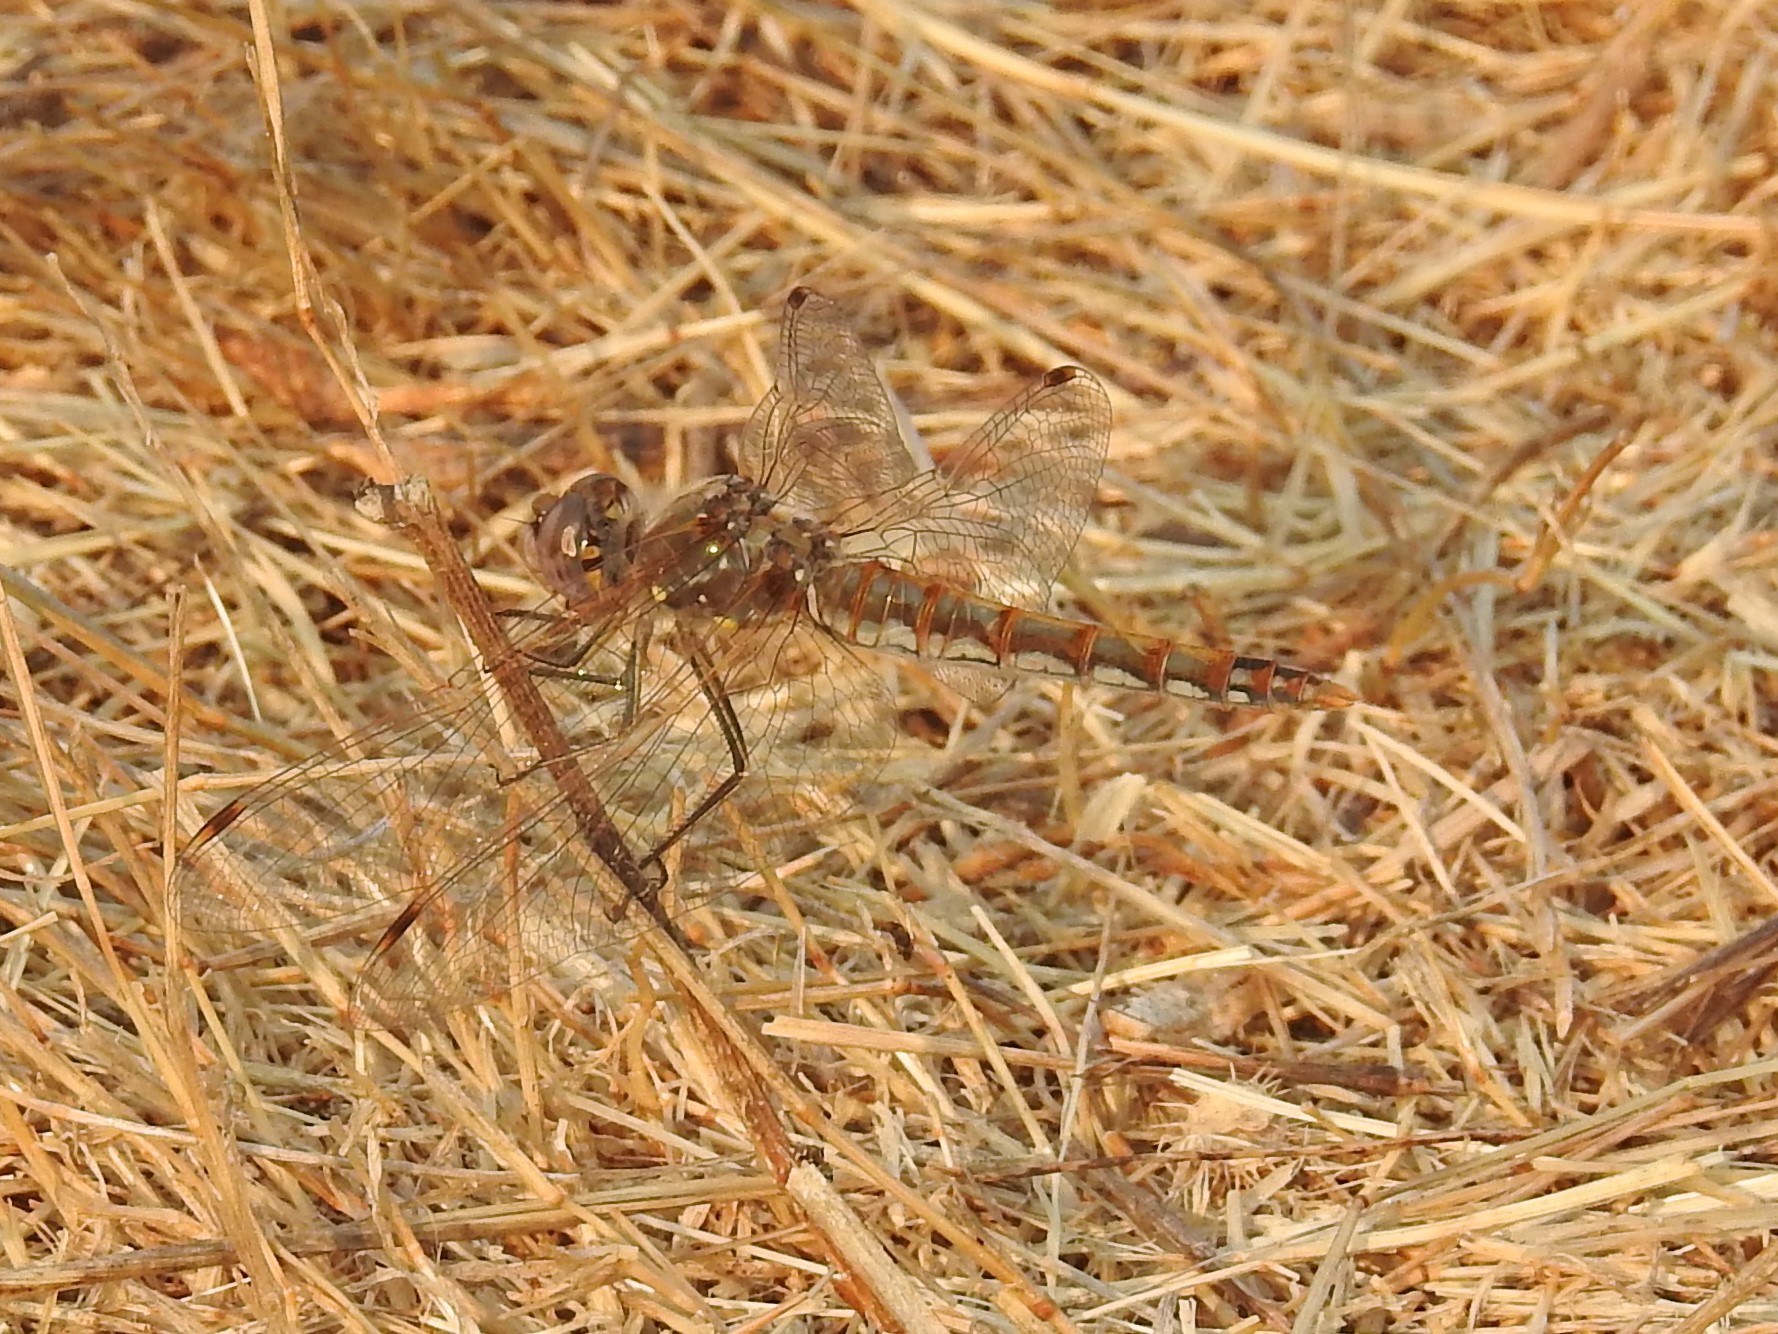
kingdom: Animalia
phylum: Arthropoda
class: Insecta
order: Odonata
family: Libellulidae
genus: Sympetrum
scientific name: Sympetrum corruptum
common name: Variegated meadowhawk
